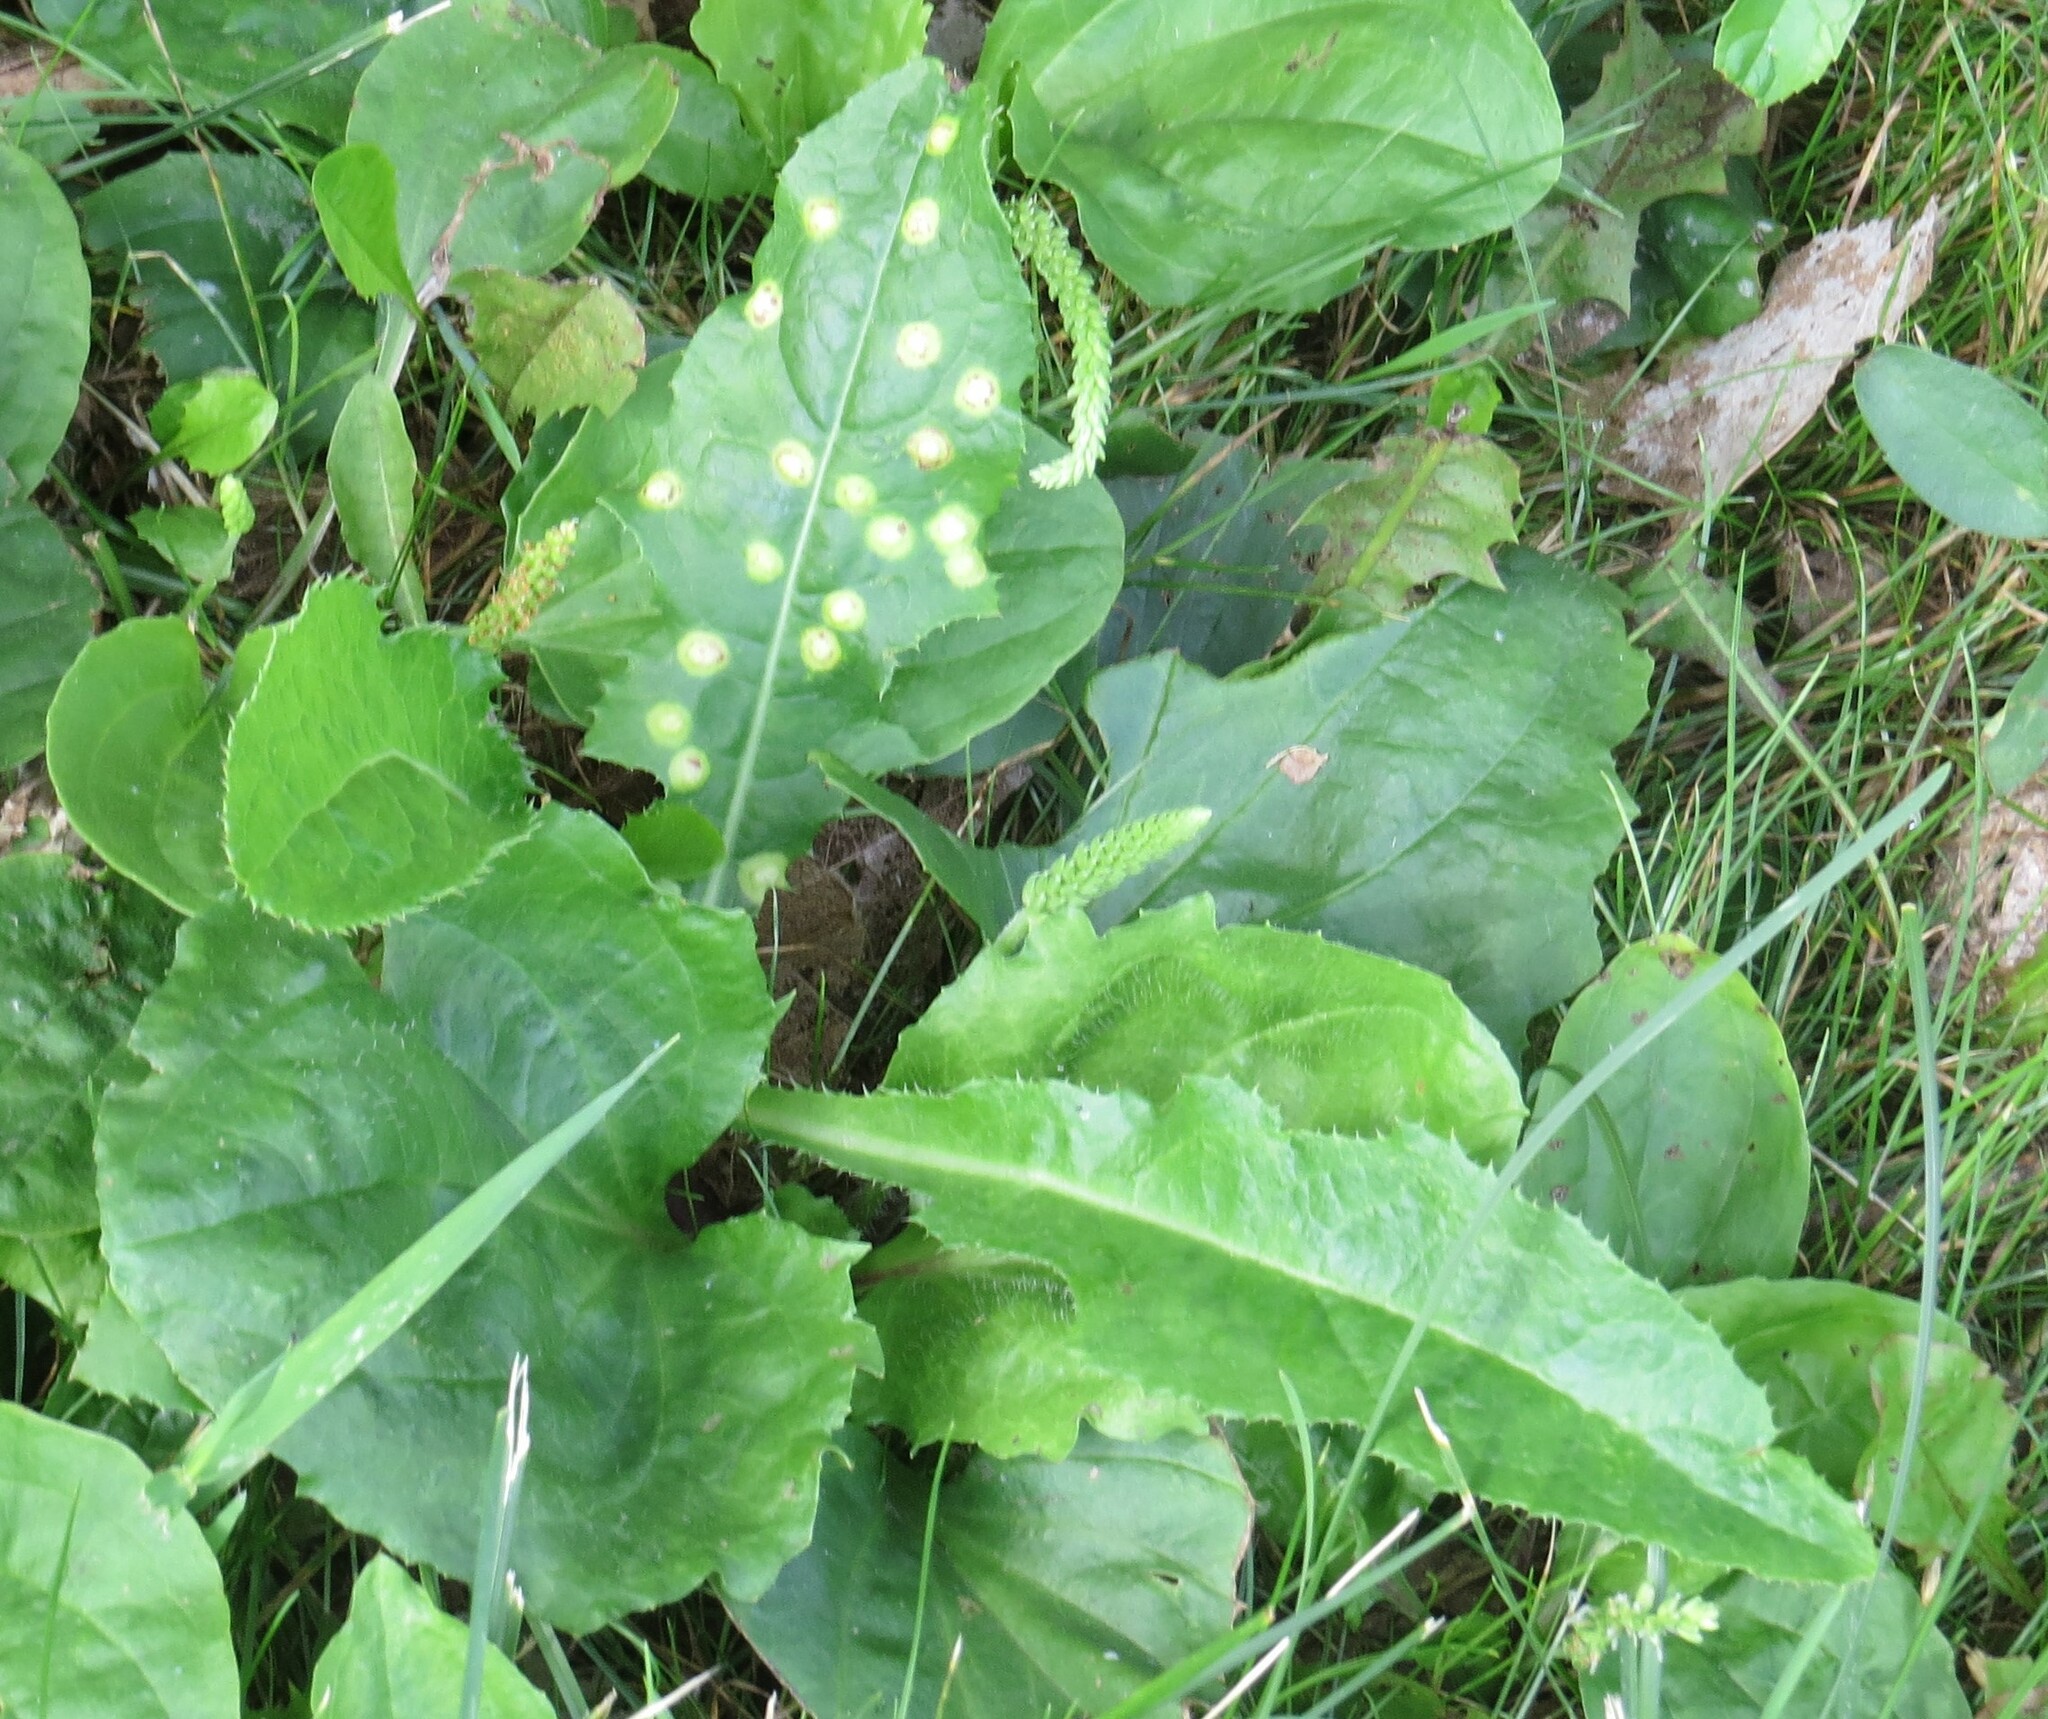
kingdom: Animalia
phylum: Arthropoda
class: Insecta
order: Diptera
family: Cecidomyiidae
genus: Cystiphora
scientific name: Cystiphora sonchi
